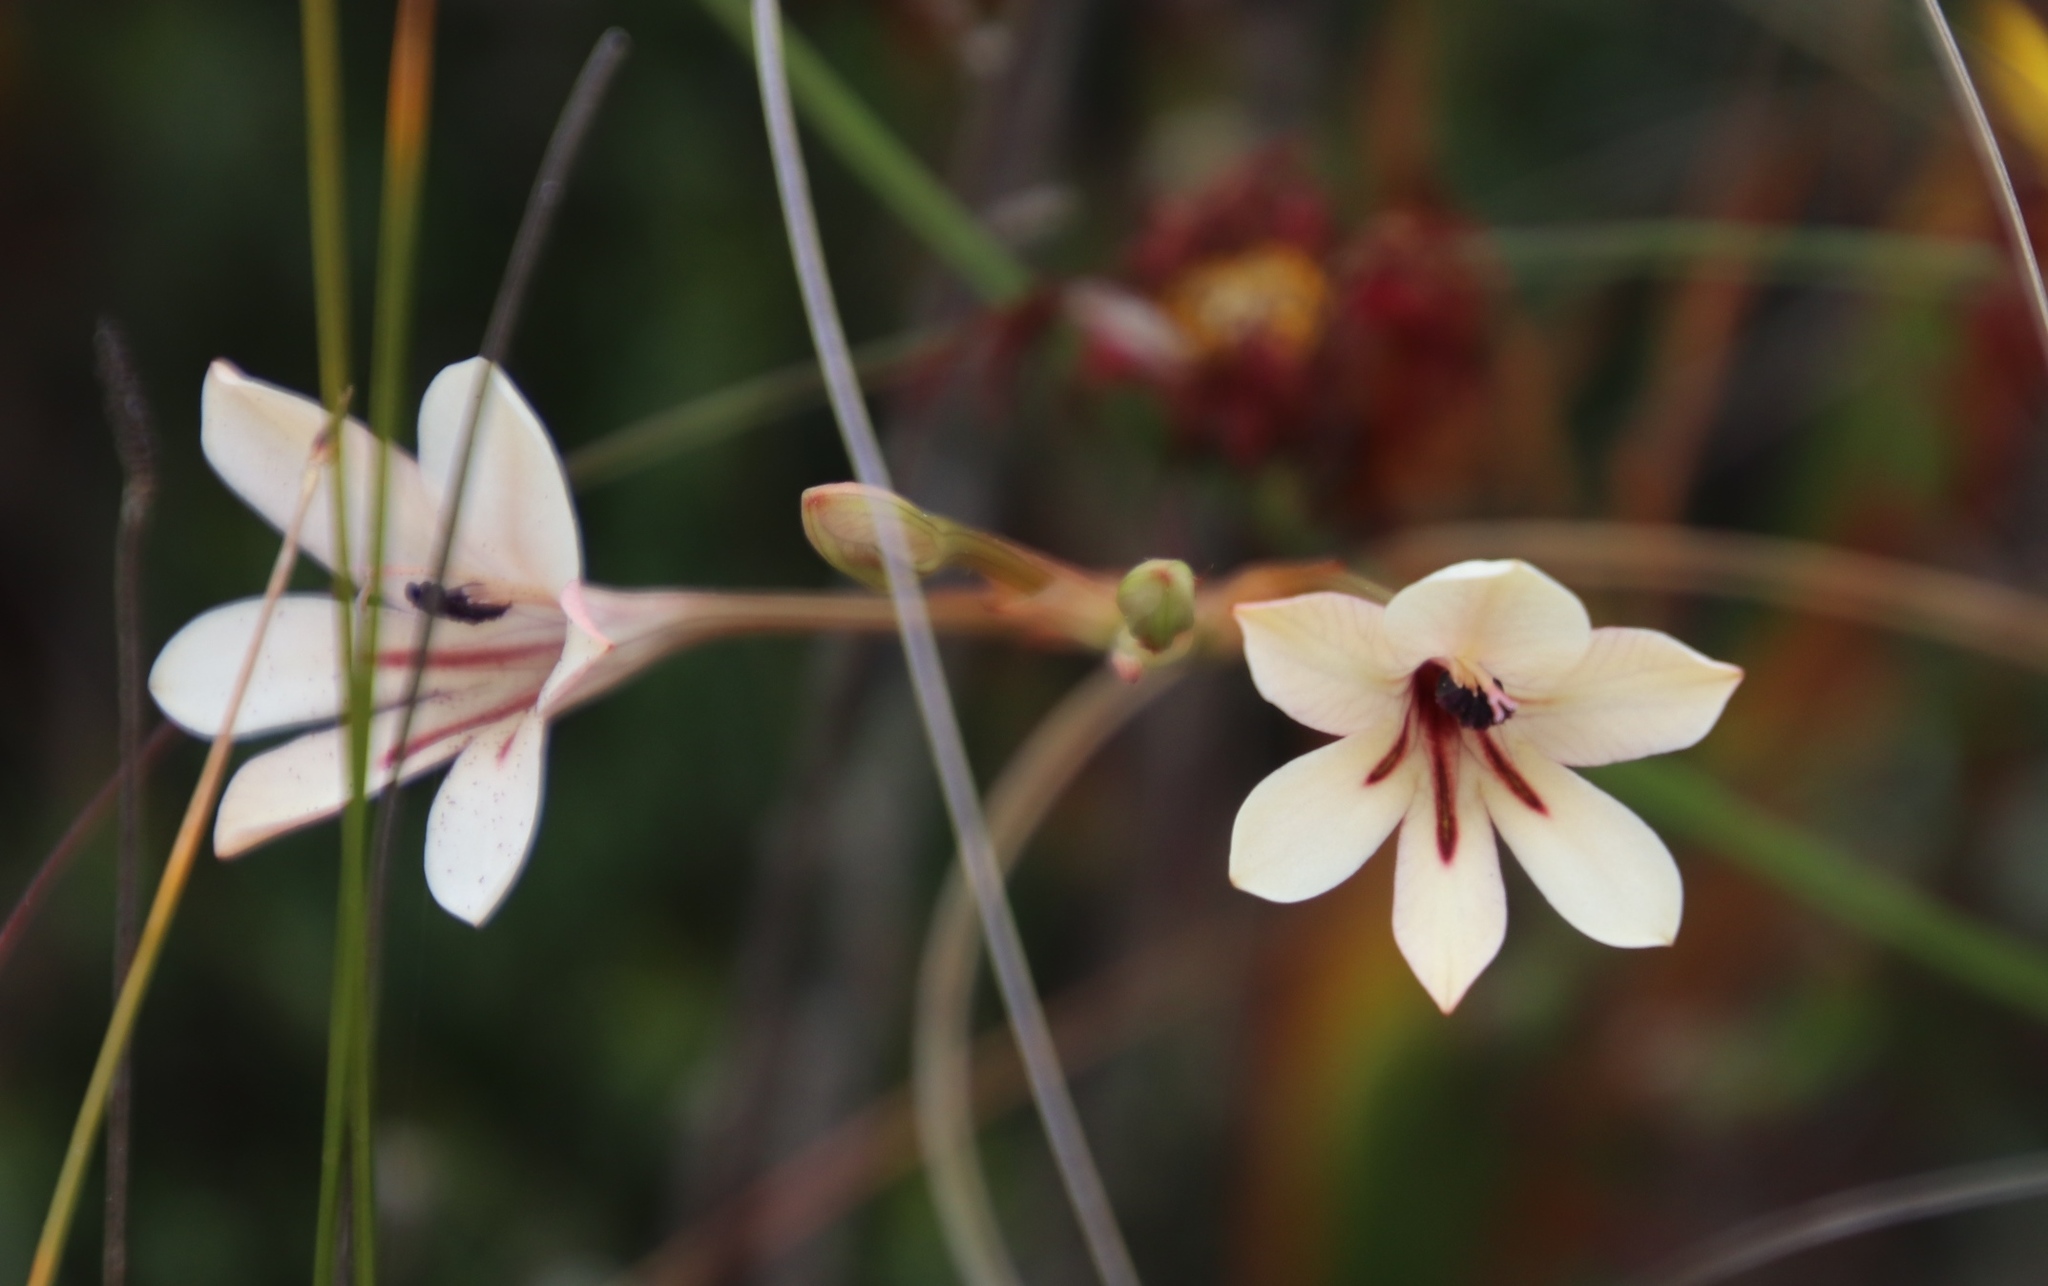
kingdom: Plantae
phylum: Tracheophyta
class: Liliopsida
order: Asparagales
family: Iridaceae
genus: Tritonia
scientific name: Tritonia flabellifolia
